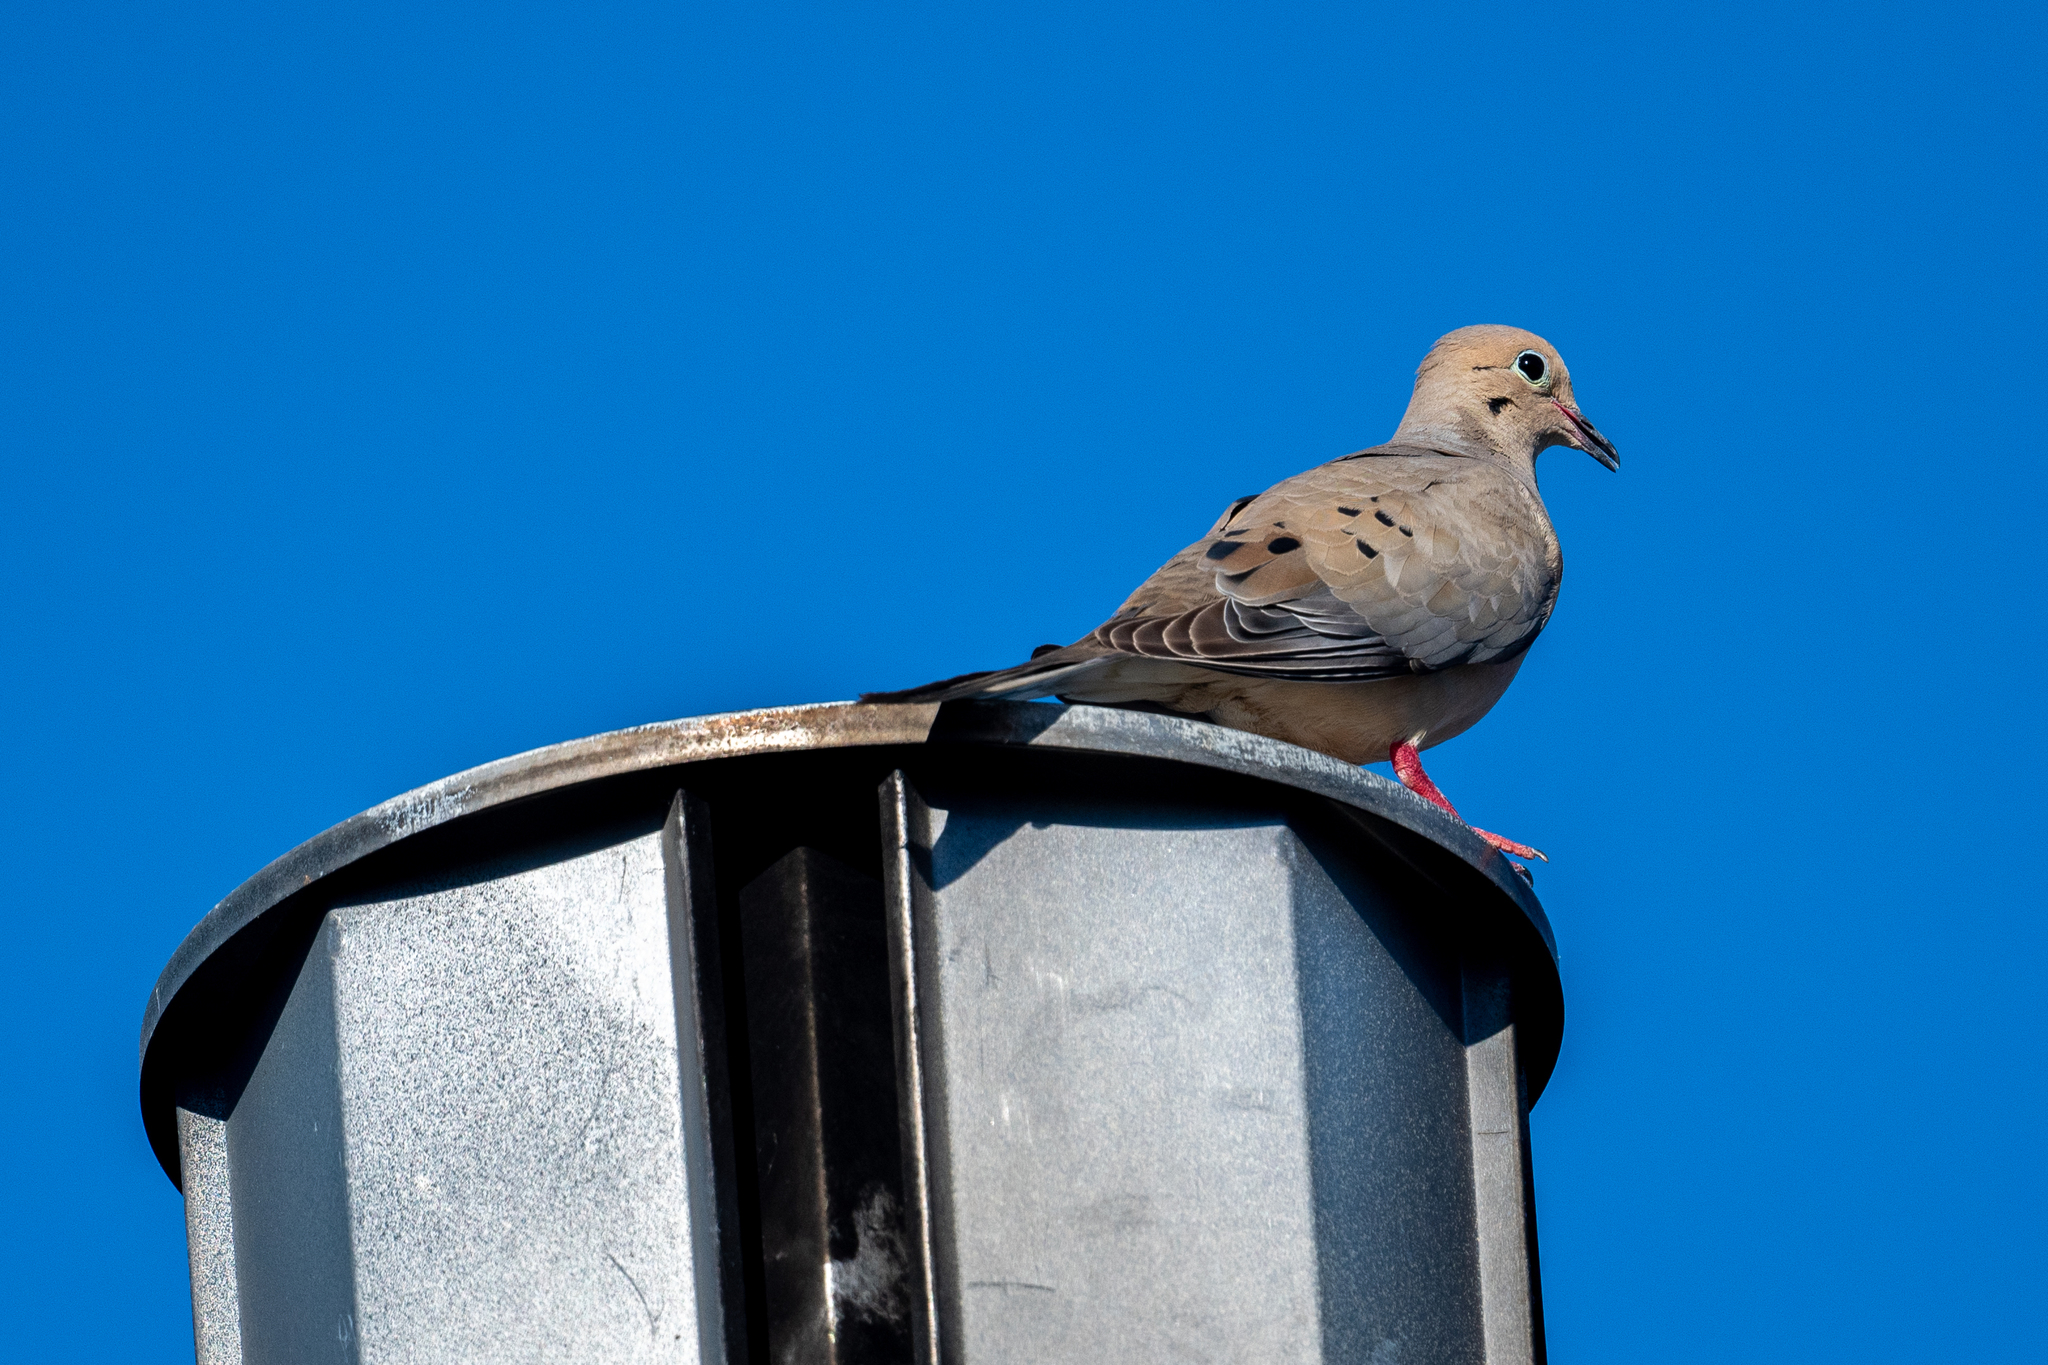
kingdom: Animalia
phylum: Chordata
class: Aves
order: Columbiformes
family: Columbidae
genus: Zenaida
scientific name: Zenaida macroura
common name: Mourning dove
